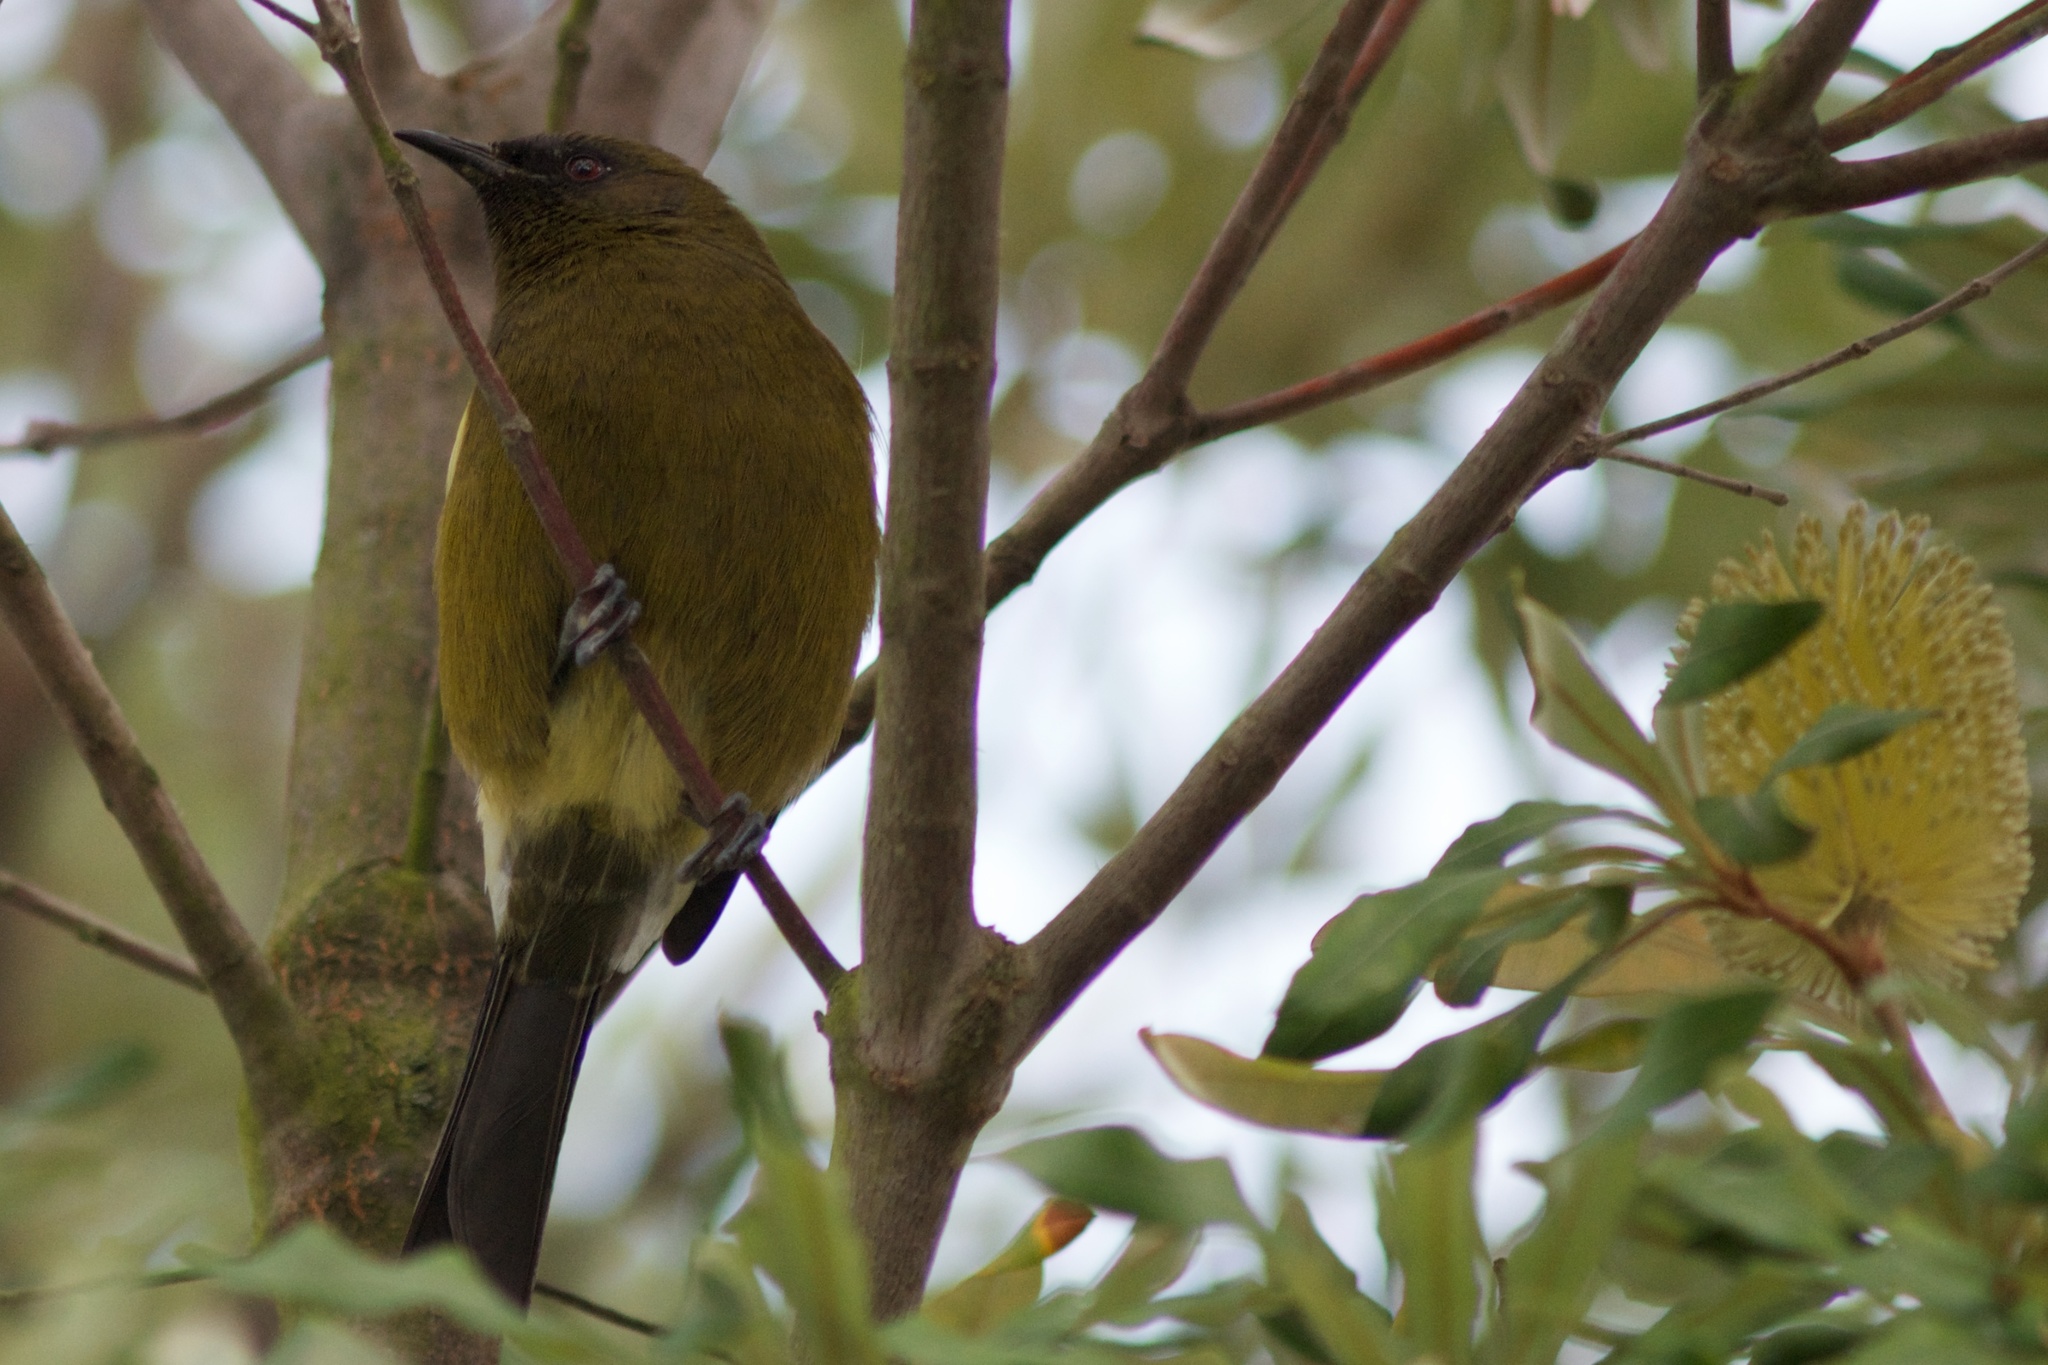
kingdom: Animalia
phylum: Chordata
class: Aves
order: Passeriformes
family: Meliphagidae
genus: Anthornis
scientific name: Anthornis melanura
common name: New zealand bellbird
